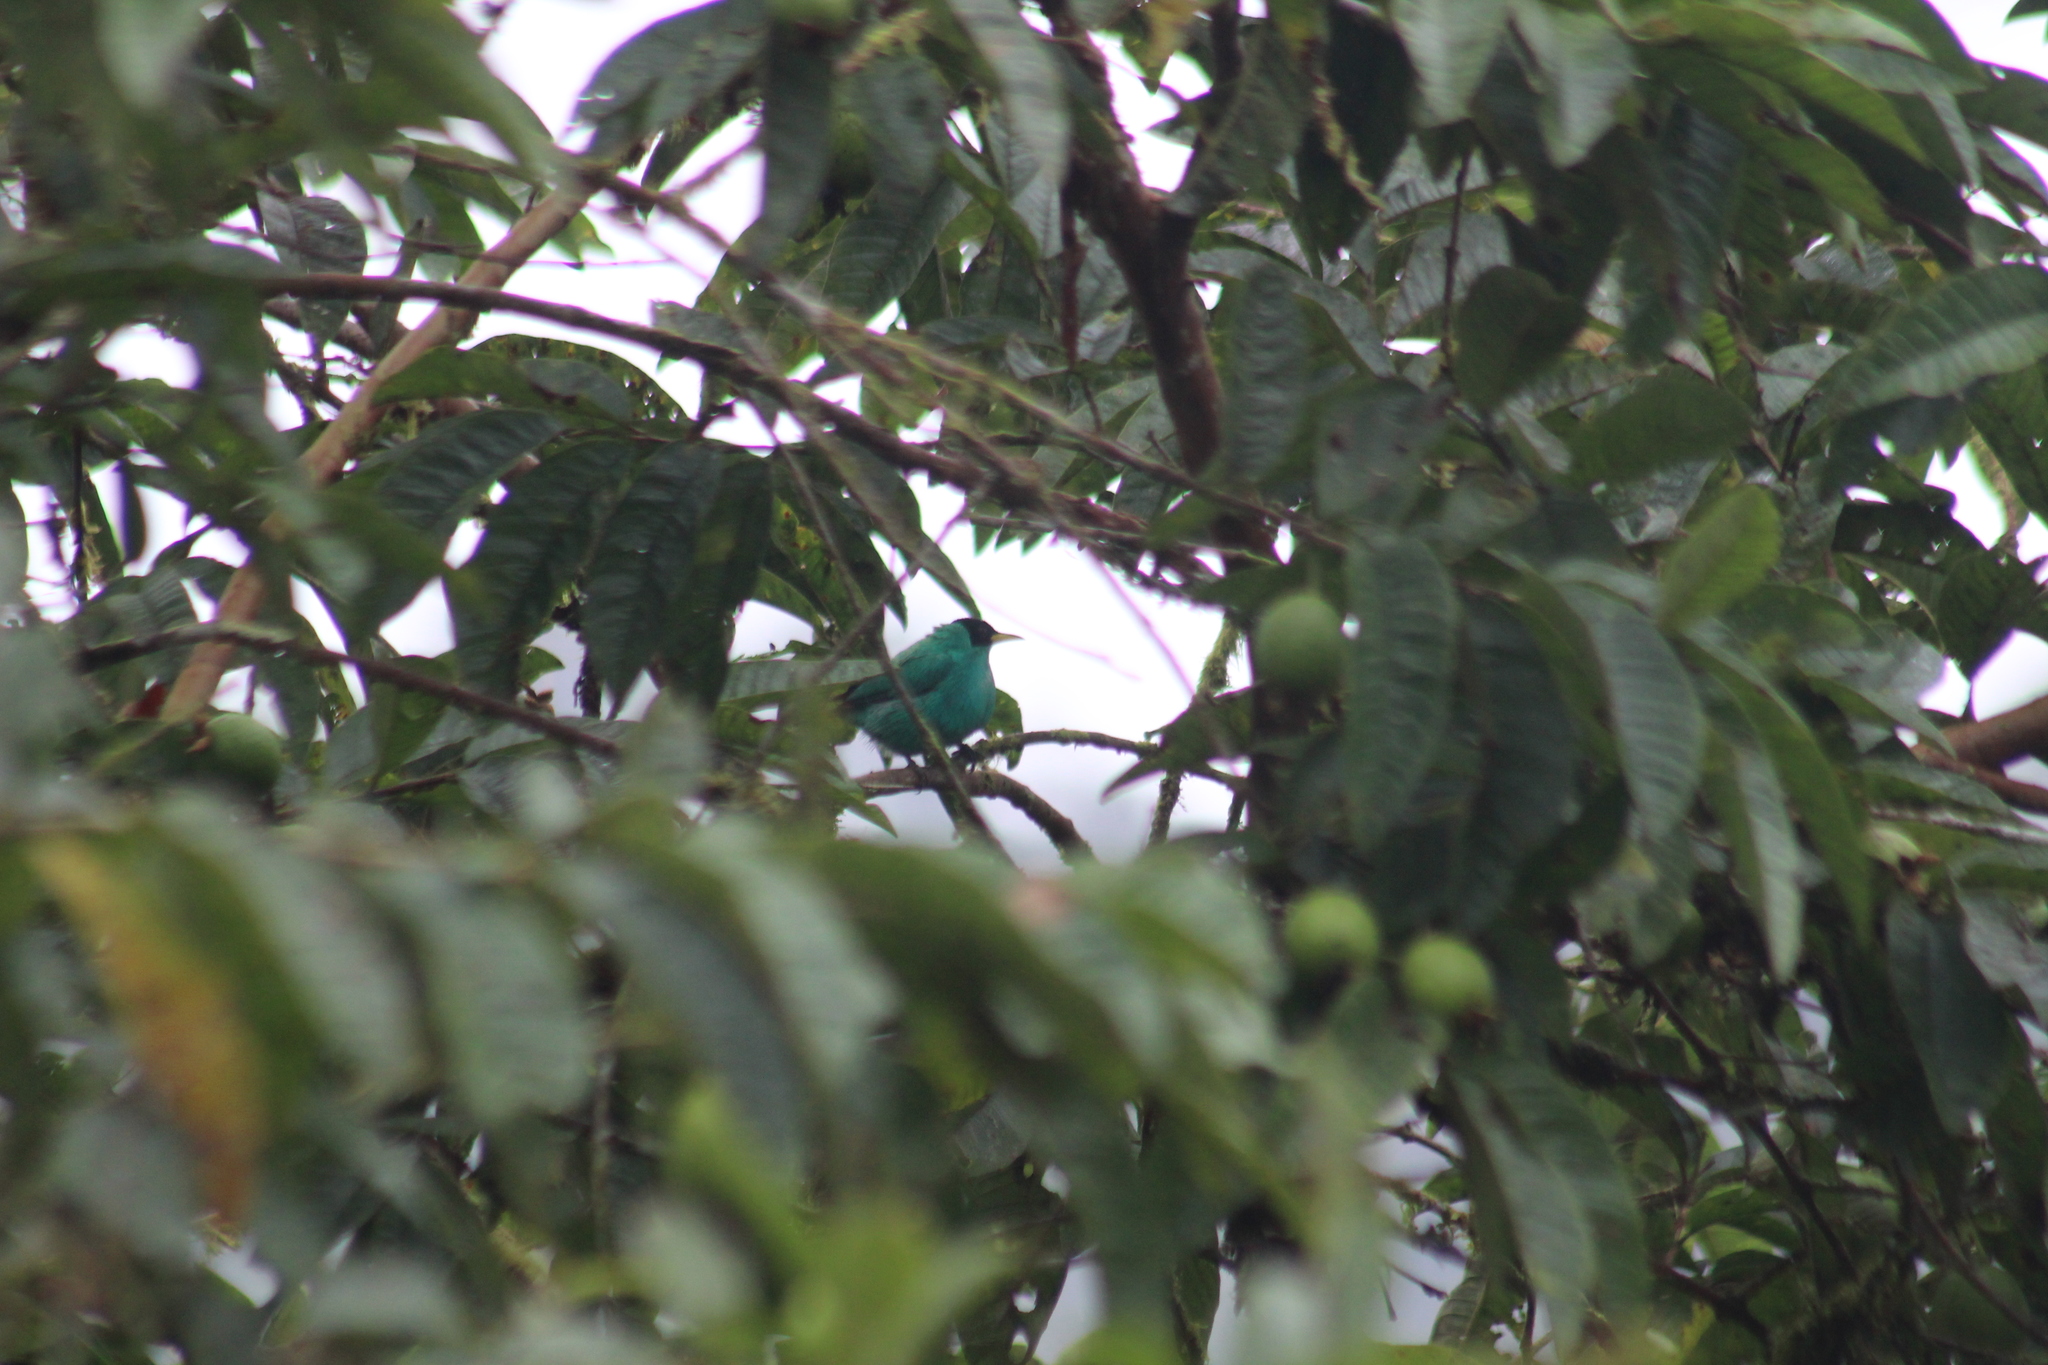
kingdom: Animalia
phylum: Chordata
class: Aves
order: Passeriformes
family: Thraupidae
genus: Chlorophanes
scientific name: Chlorophanes spiza
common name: Green honeycreeper
